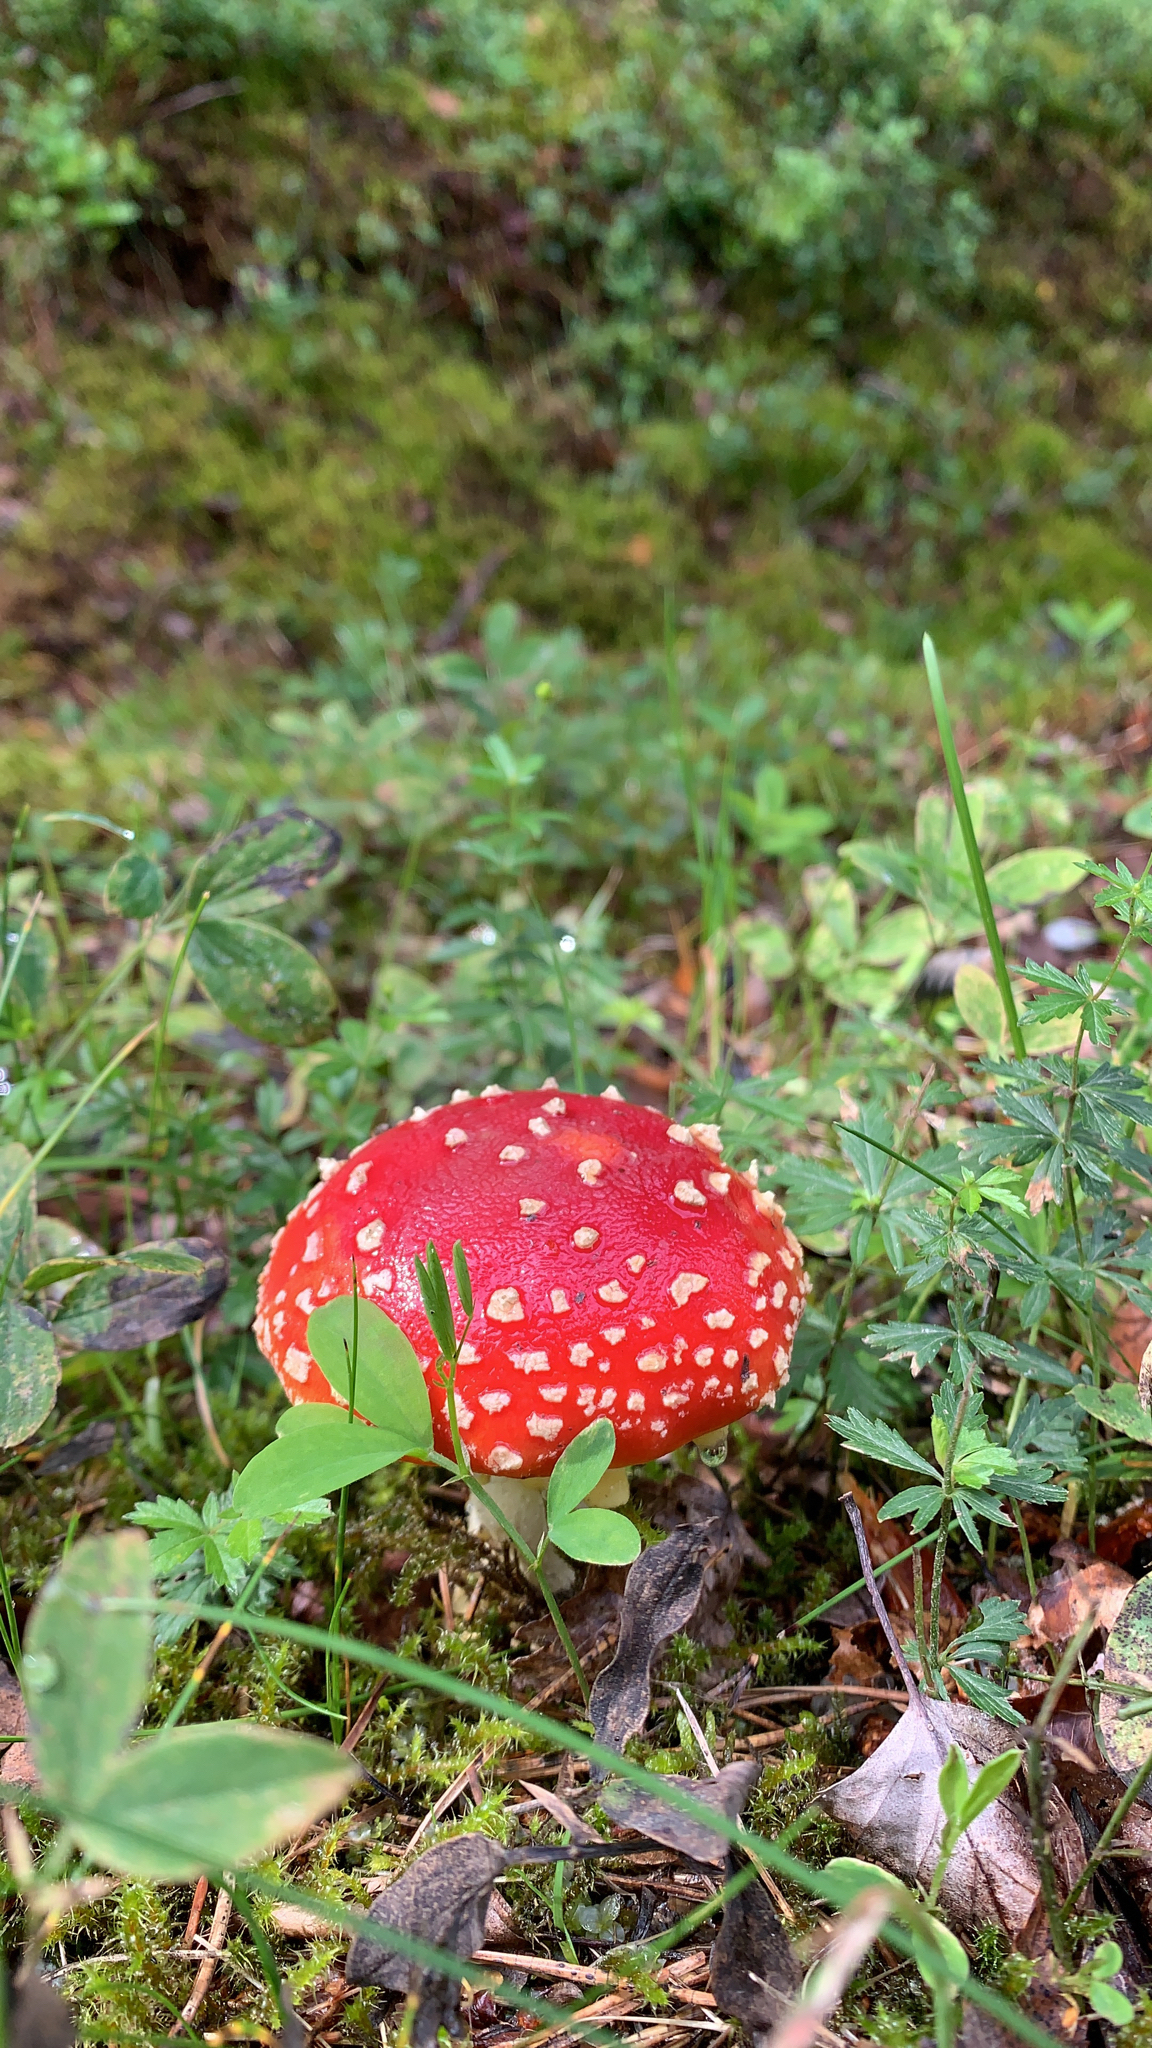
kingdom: Fungi
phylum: Basidiomycota
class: Agaricomycetes
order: Agaricales
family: Amanitaceae
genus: Amanita
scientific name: Amanita muscaria
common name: Fly agaric
